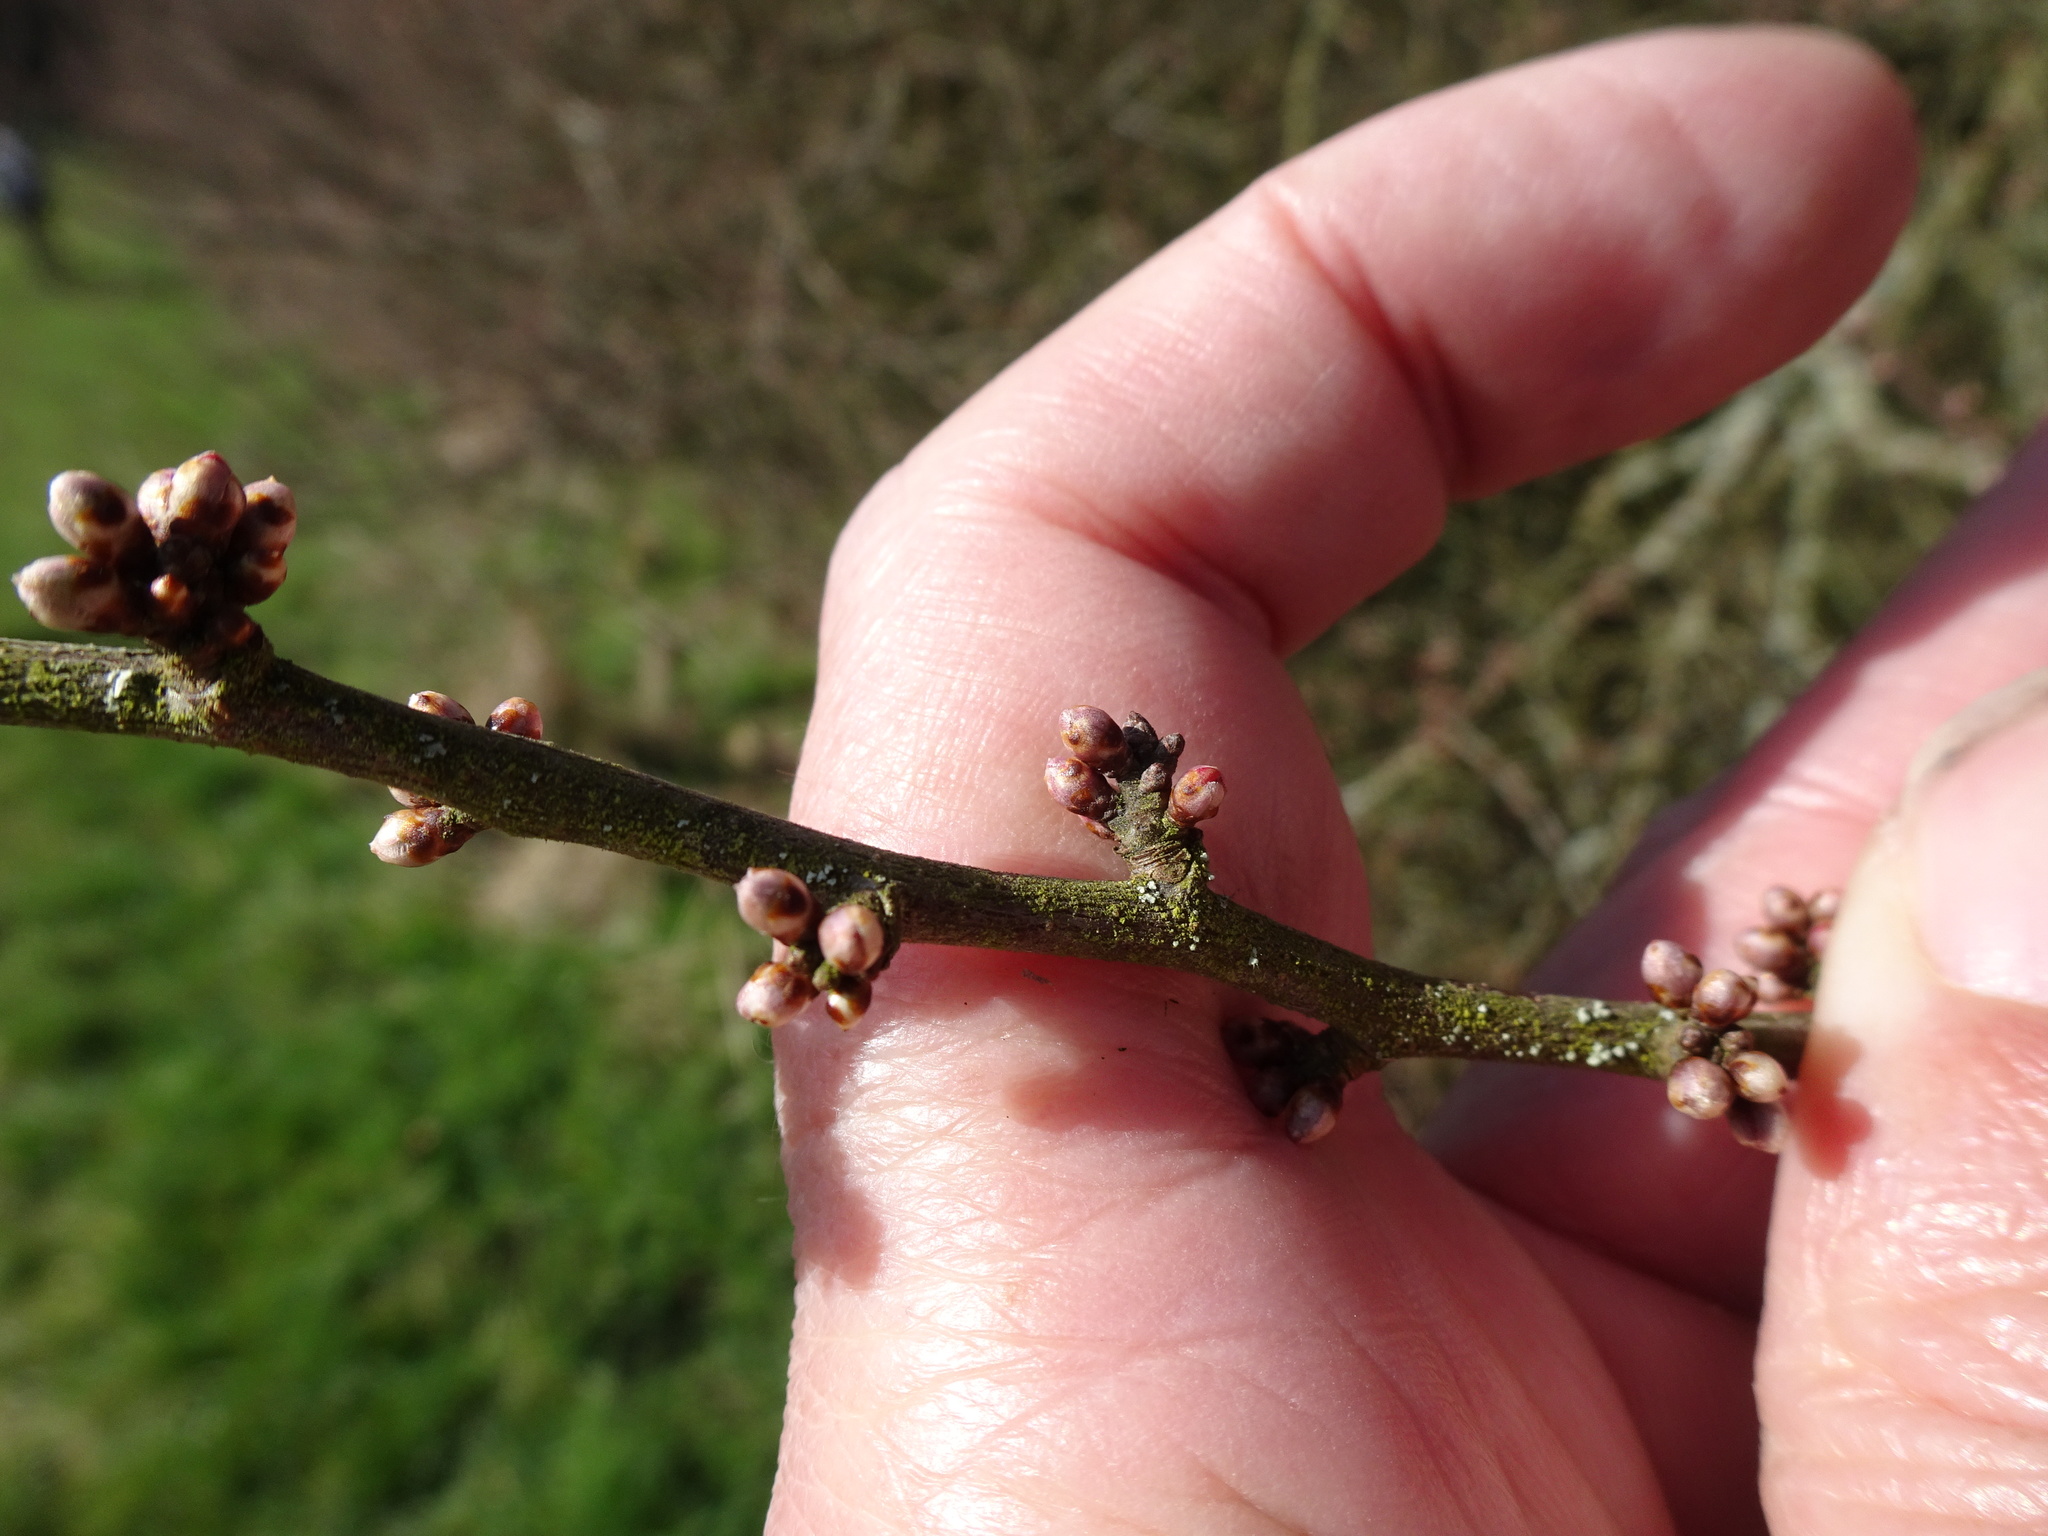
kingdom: Plantae
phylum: Tracheophyta
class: Magnoliopsida
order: Rosales
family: Rosaceae
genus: Prunus
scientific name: Prunus spinosa
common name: Blackthorn
